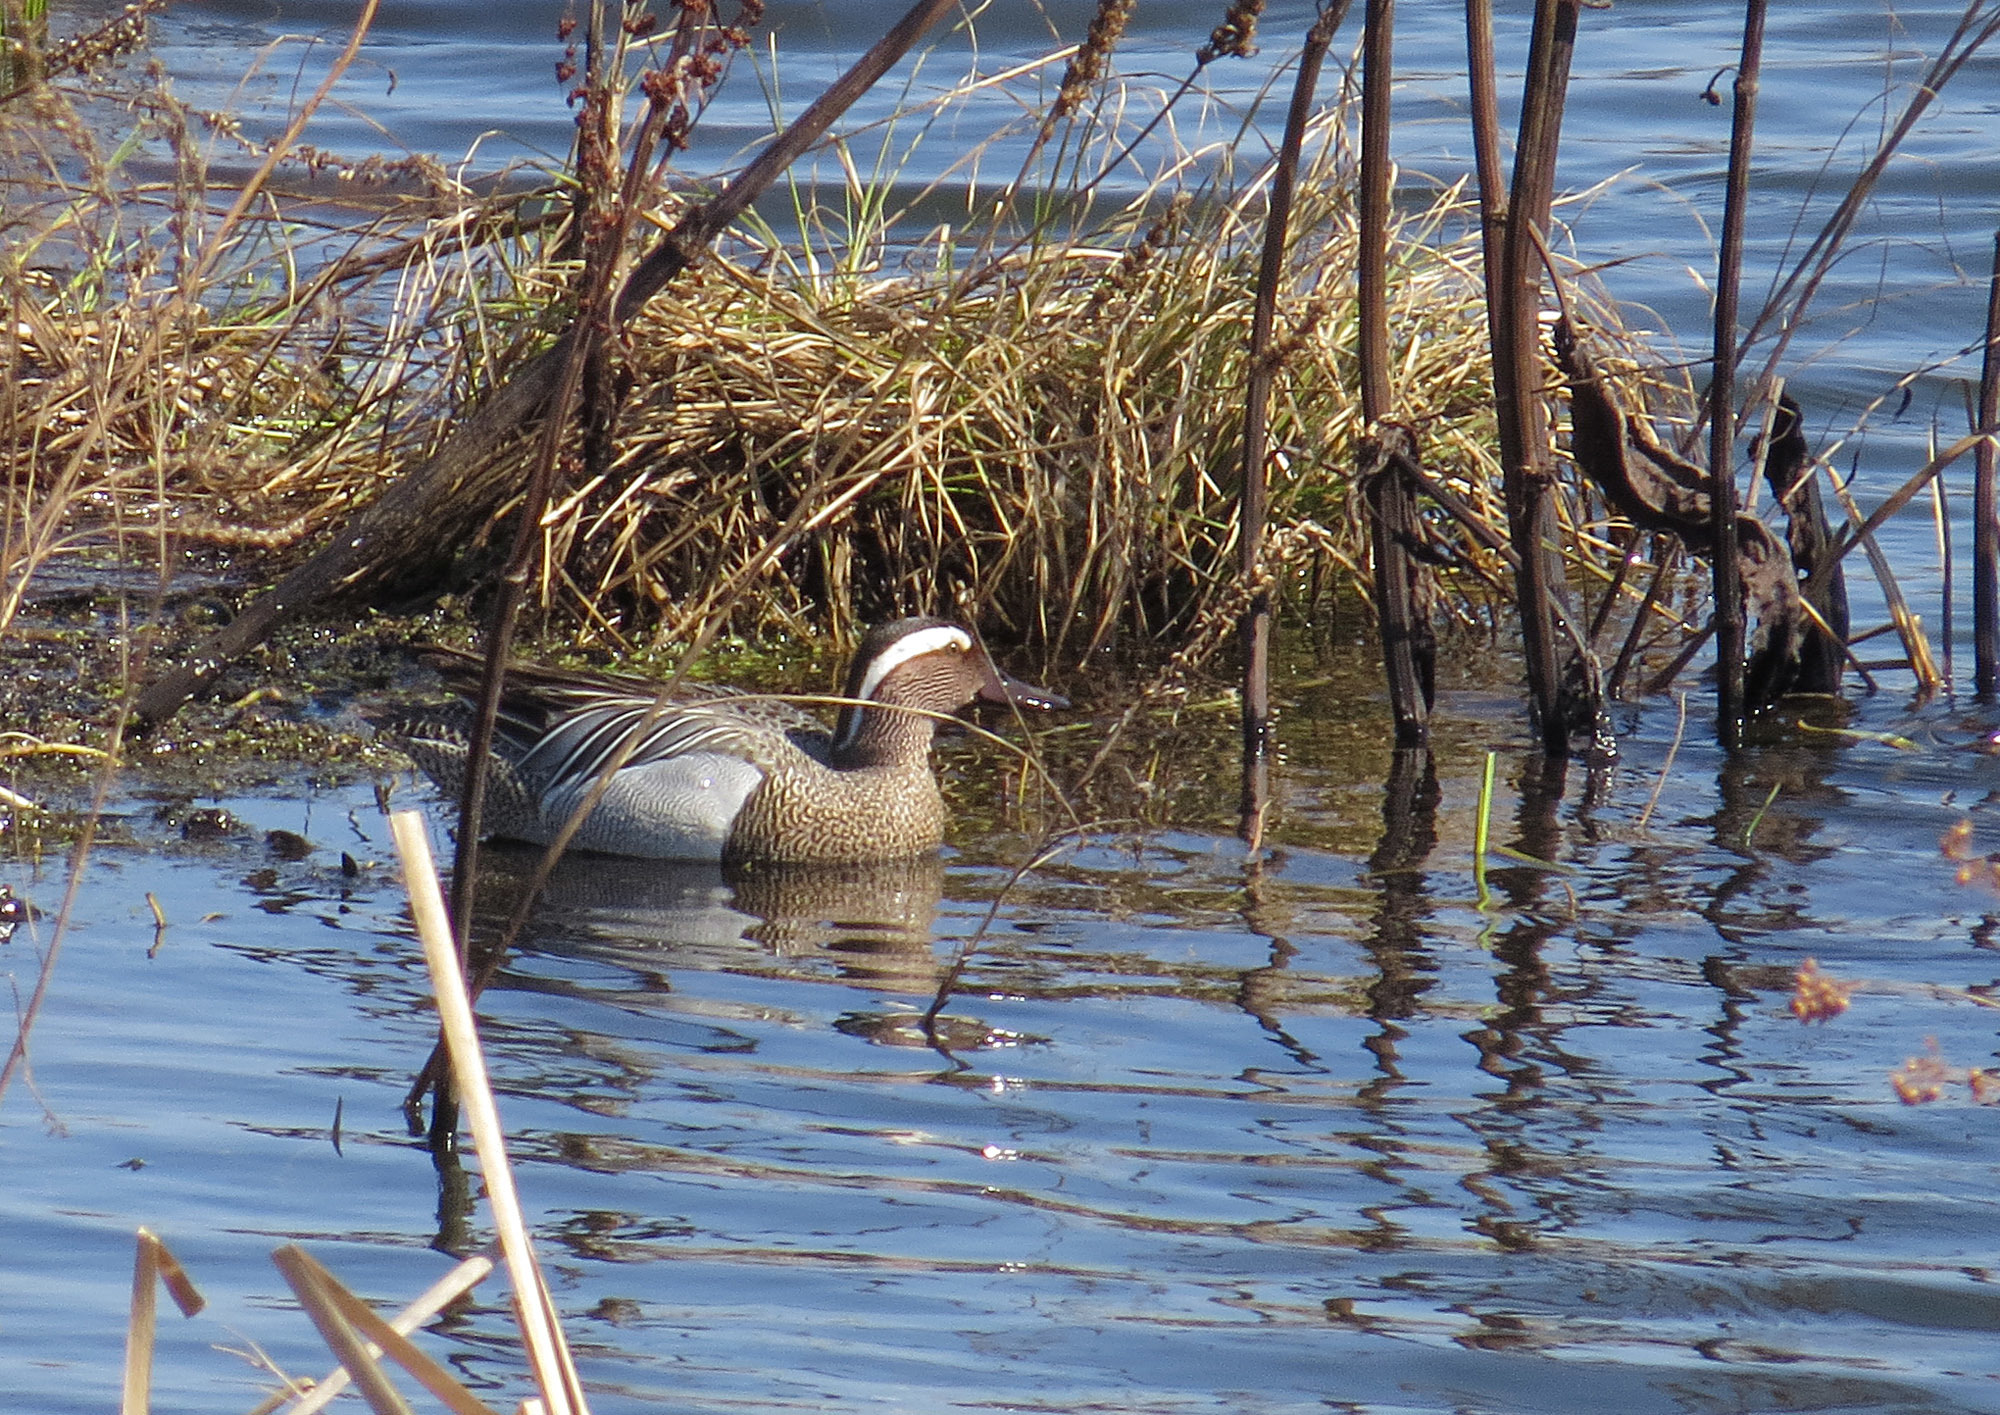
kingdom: Animalia
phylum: Chordata
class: Aves
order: Anseriformes
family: Anatidae
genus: Spatula
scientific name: Spatula querquedula
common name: Garganey
